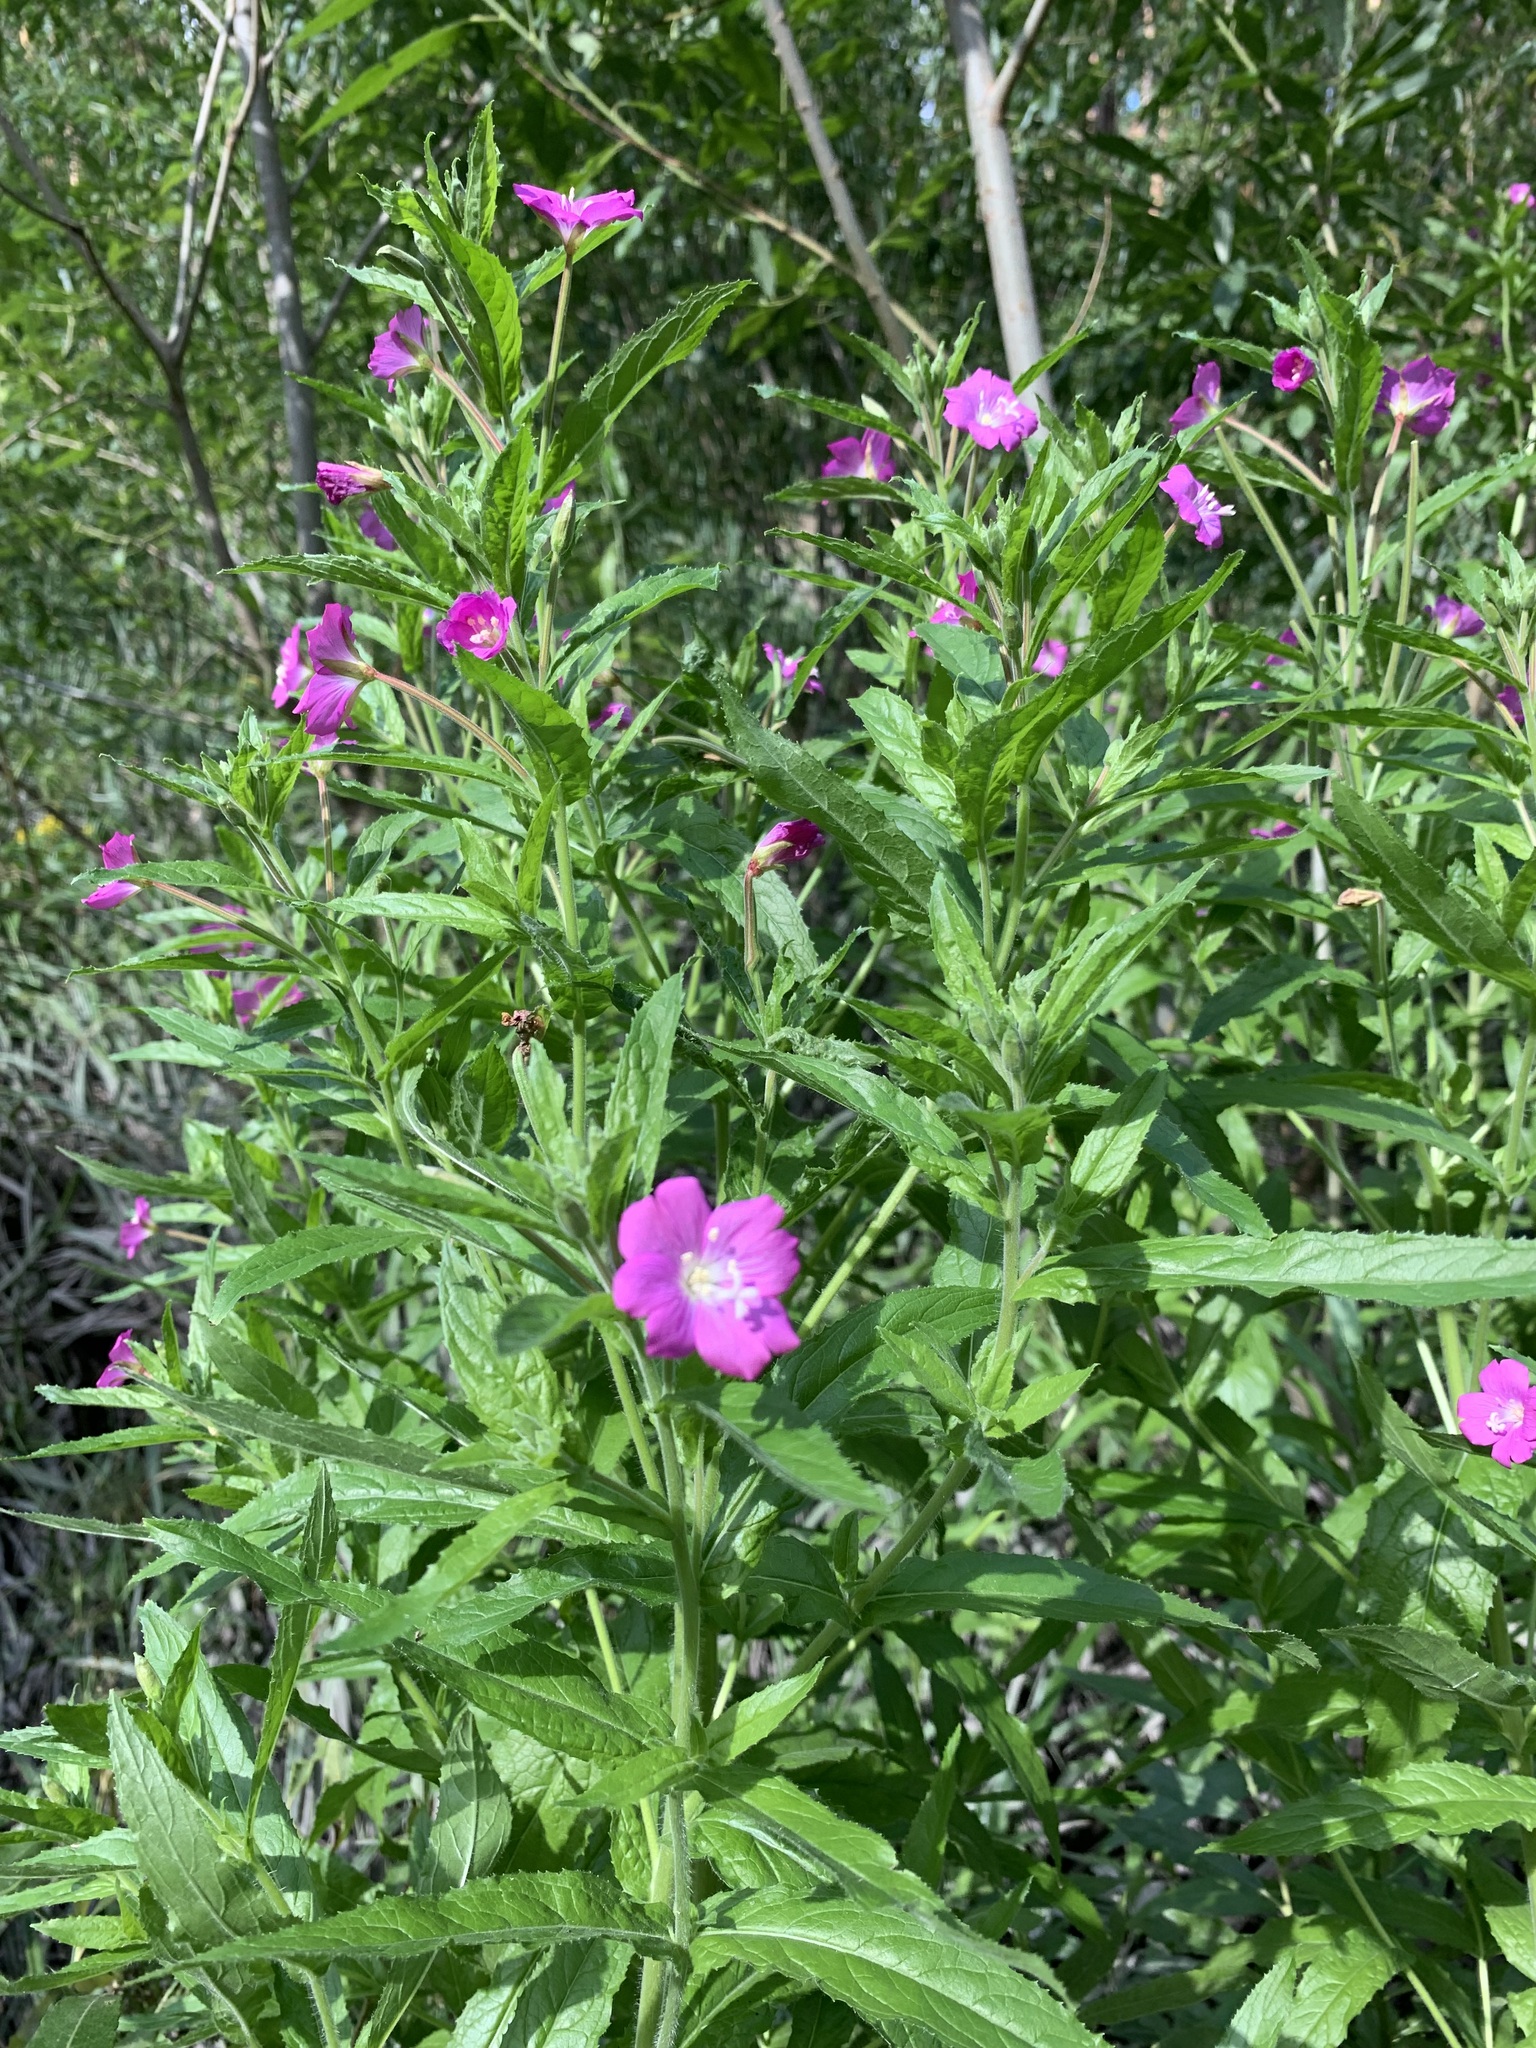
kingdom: Plantae
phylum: Tracheophyta
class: Magnoliopsida
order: Myrtales
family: Onagraceae
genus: Epilobium
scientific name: Epilobium hirsutum
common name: Great willowherb
